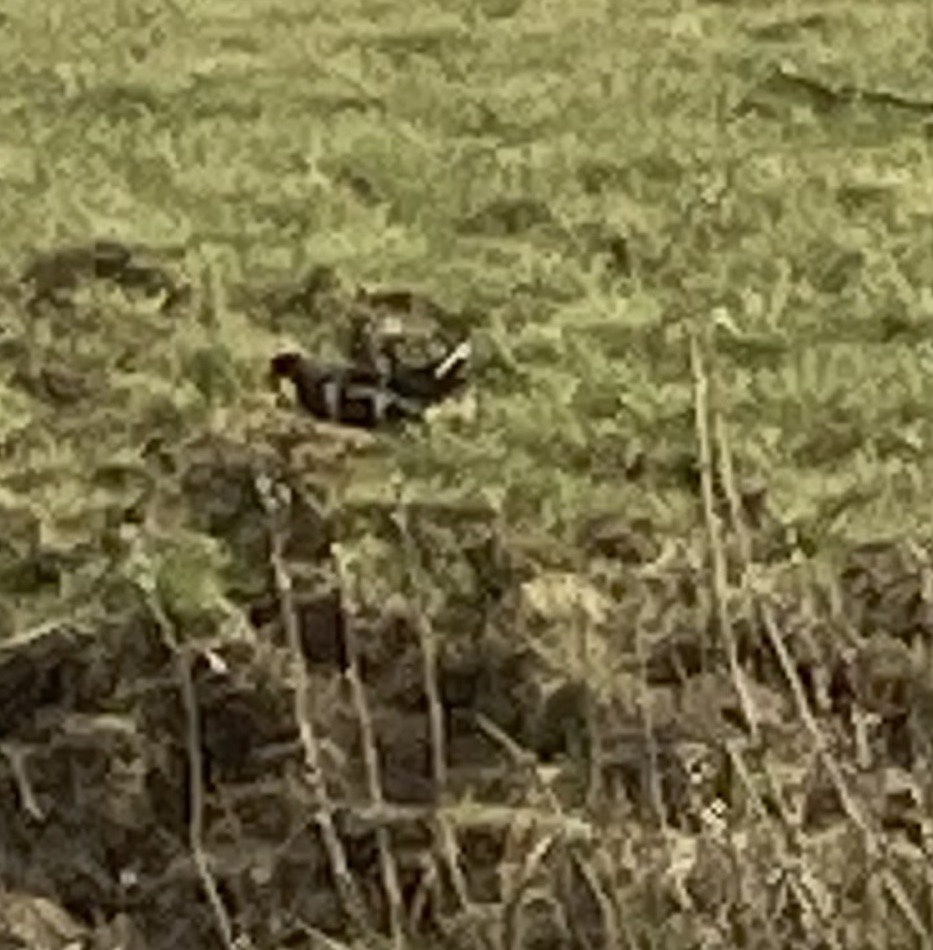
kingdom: Animalia
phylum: Chordata
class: Aves
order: Gruiformes
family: Rallidae
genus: Gallinula
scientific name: Gallinula chloropus
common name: Common moorhen
